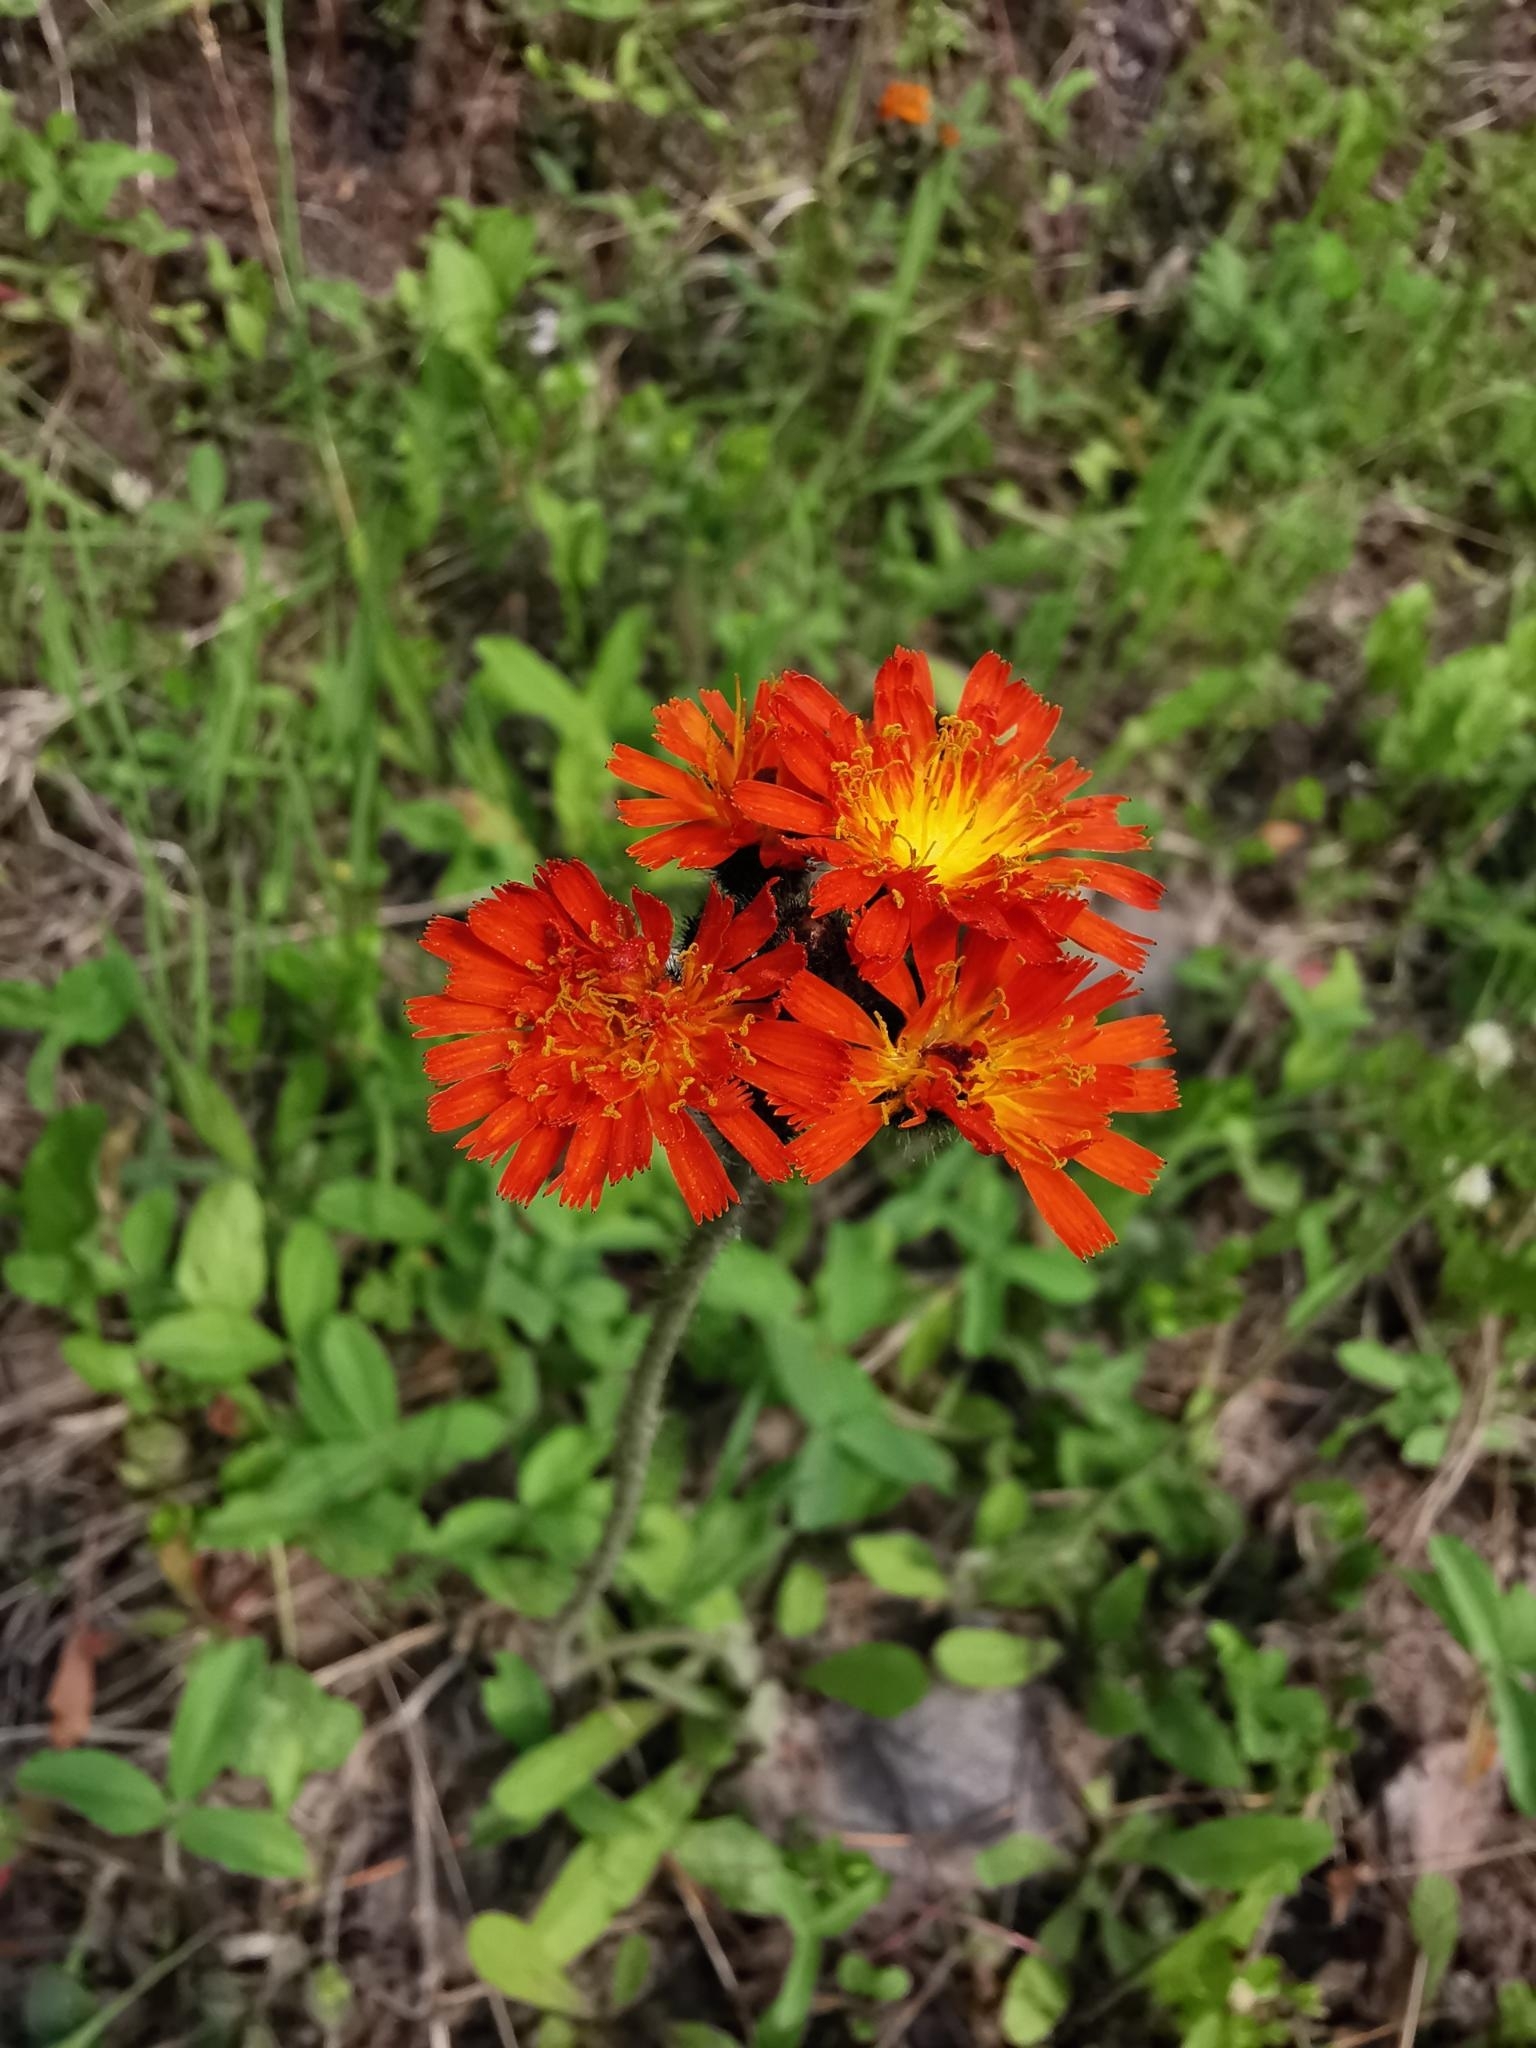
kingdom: Plantae
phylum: Tracheophyta
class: Magnoliopsida
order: Asterales
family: Asteraceae
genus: Pilosella
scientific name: Pilosella aurantiaca
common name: Fox-and-cubs
